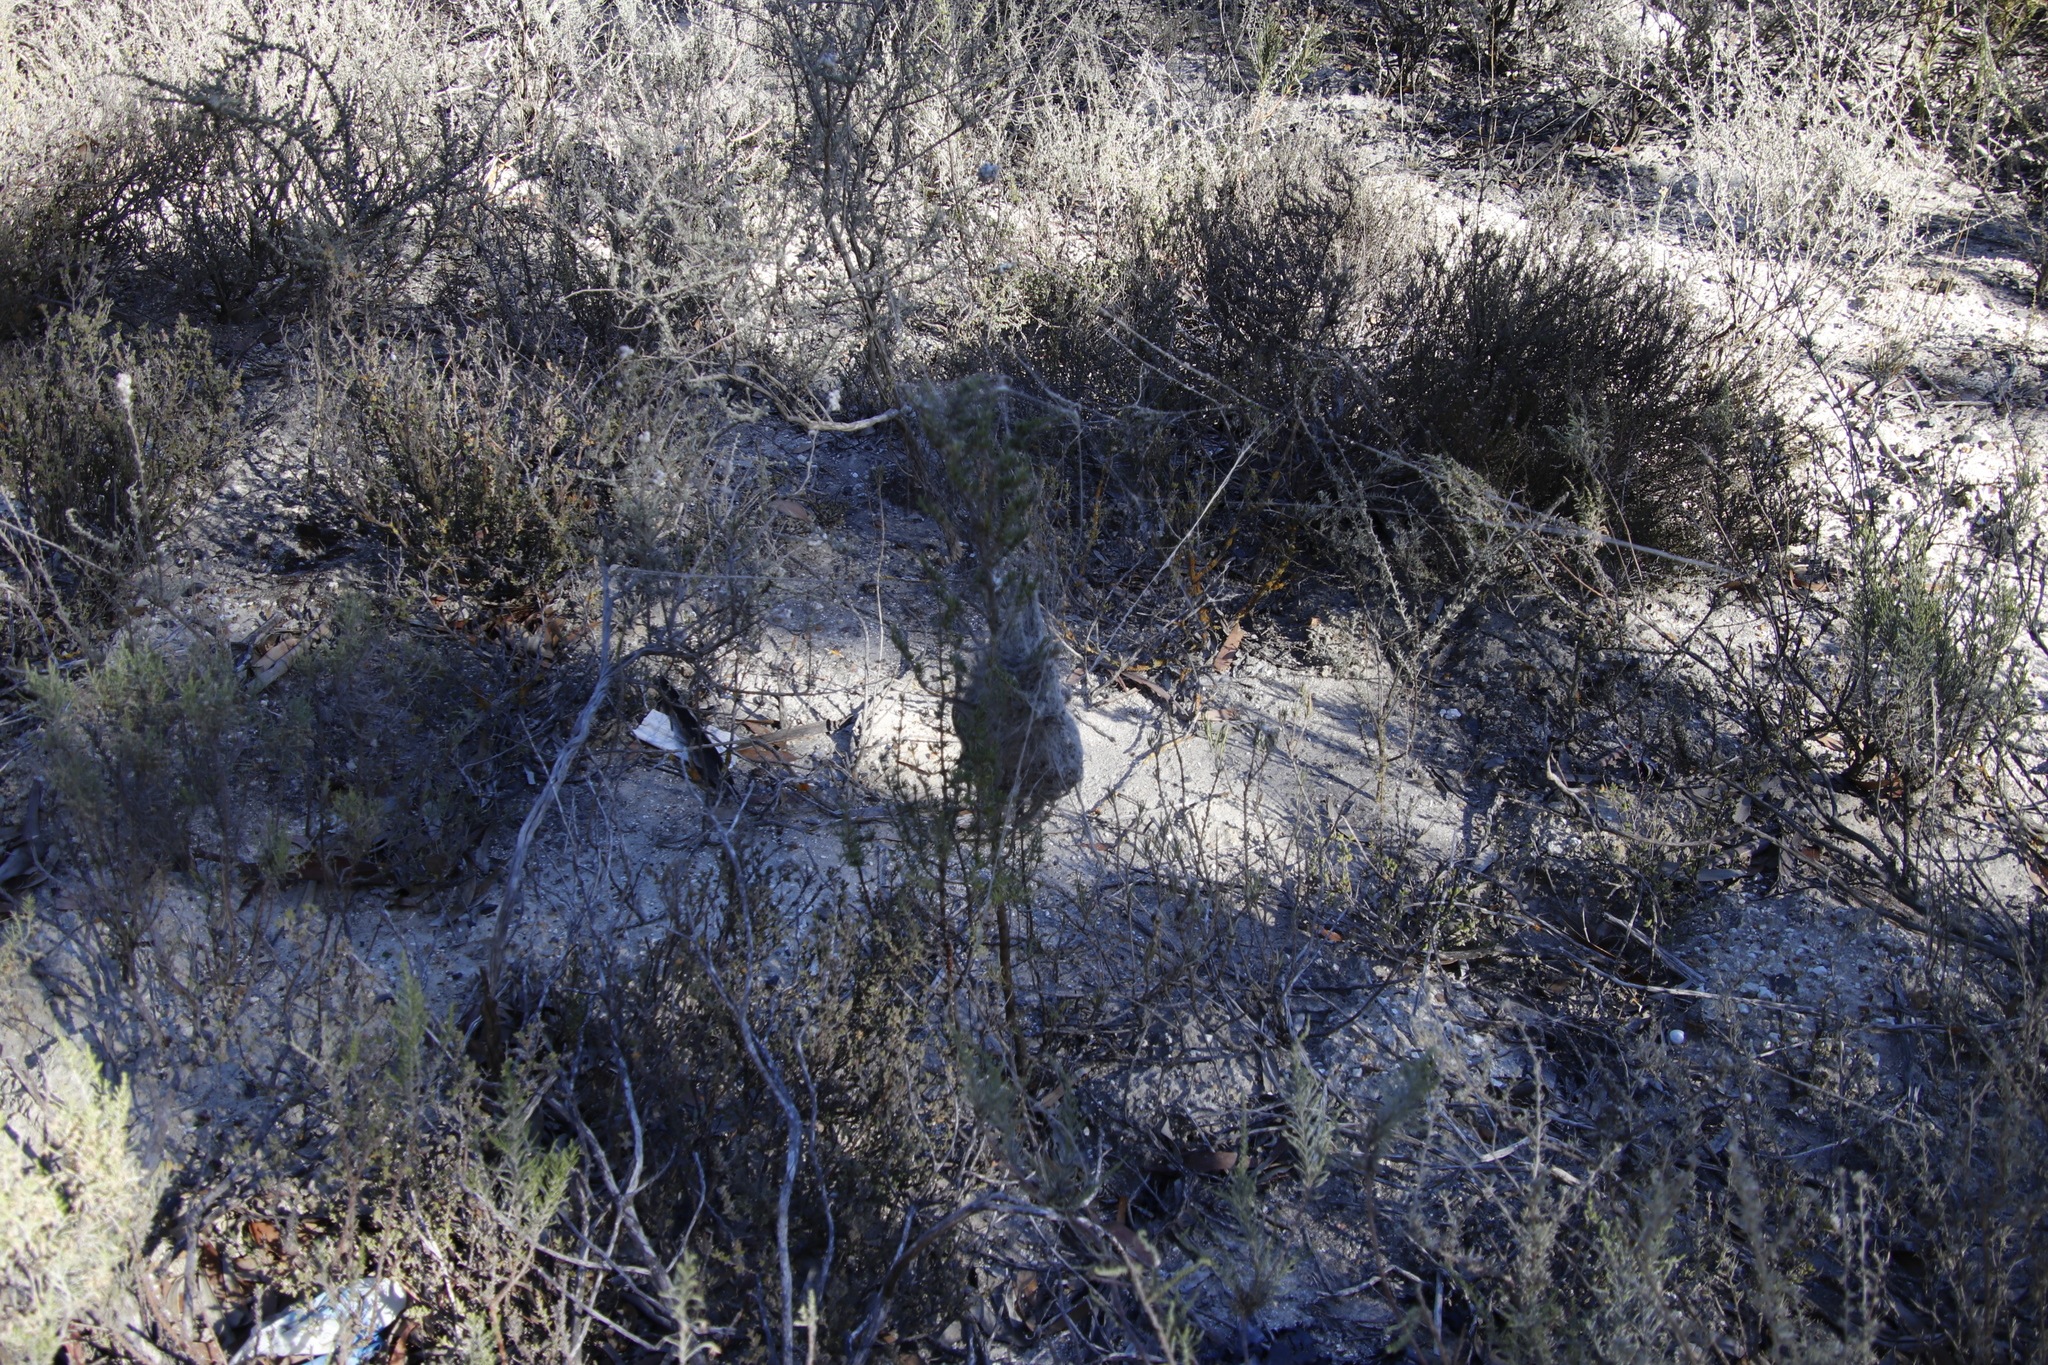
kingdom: Animalia
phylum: Arthropoda
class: Arachnida
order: Araneae
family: Eresidae
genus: Stegodyphus
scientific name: Stegodyphus dumicola
